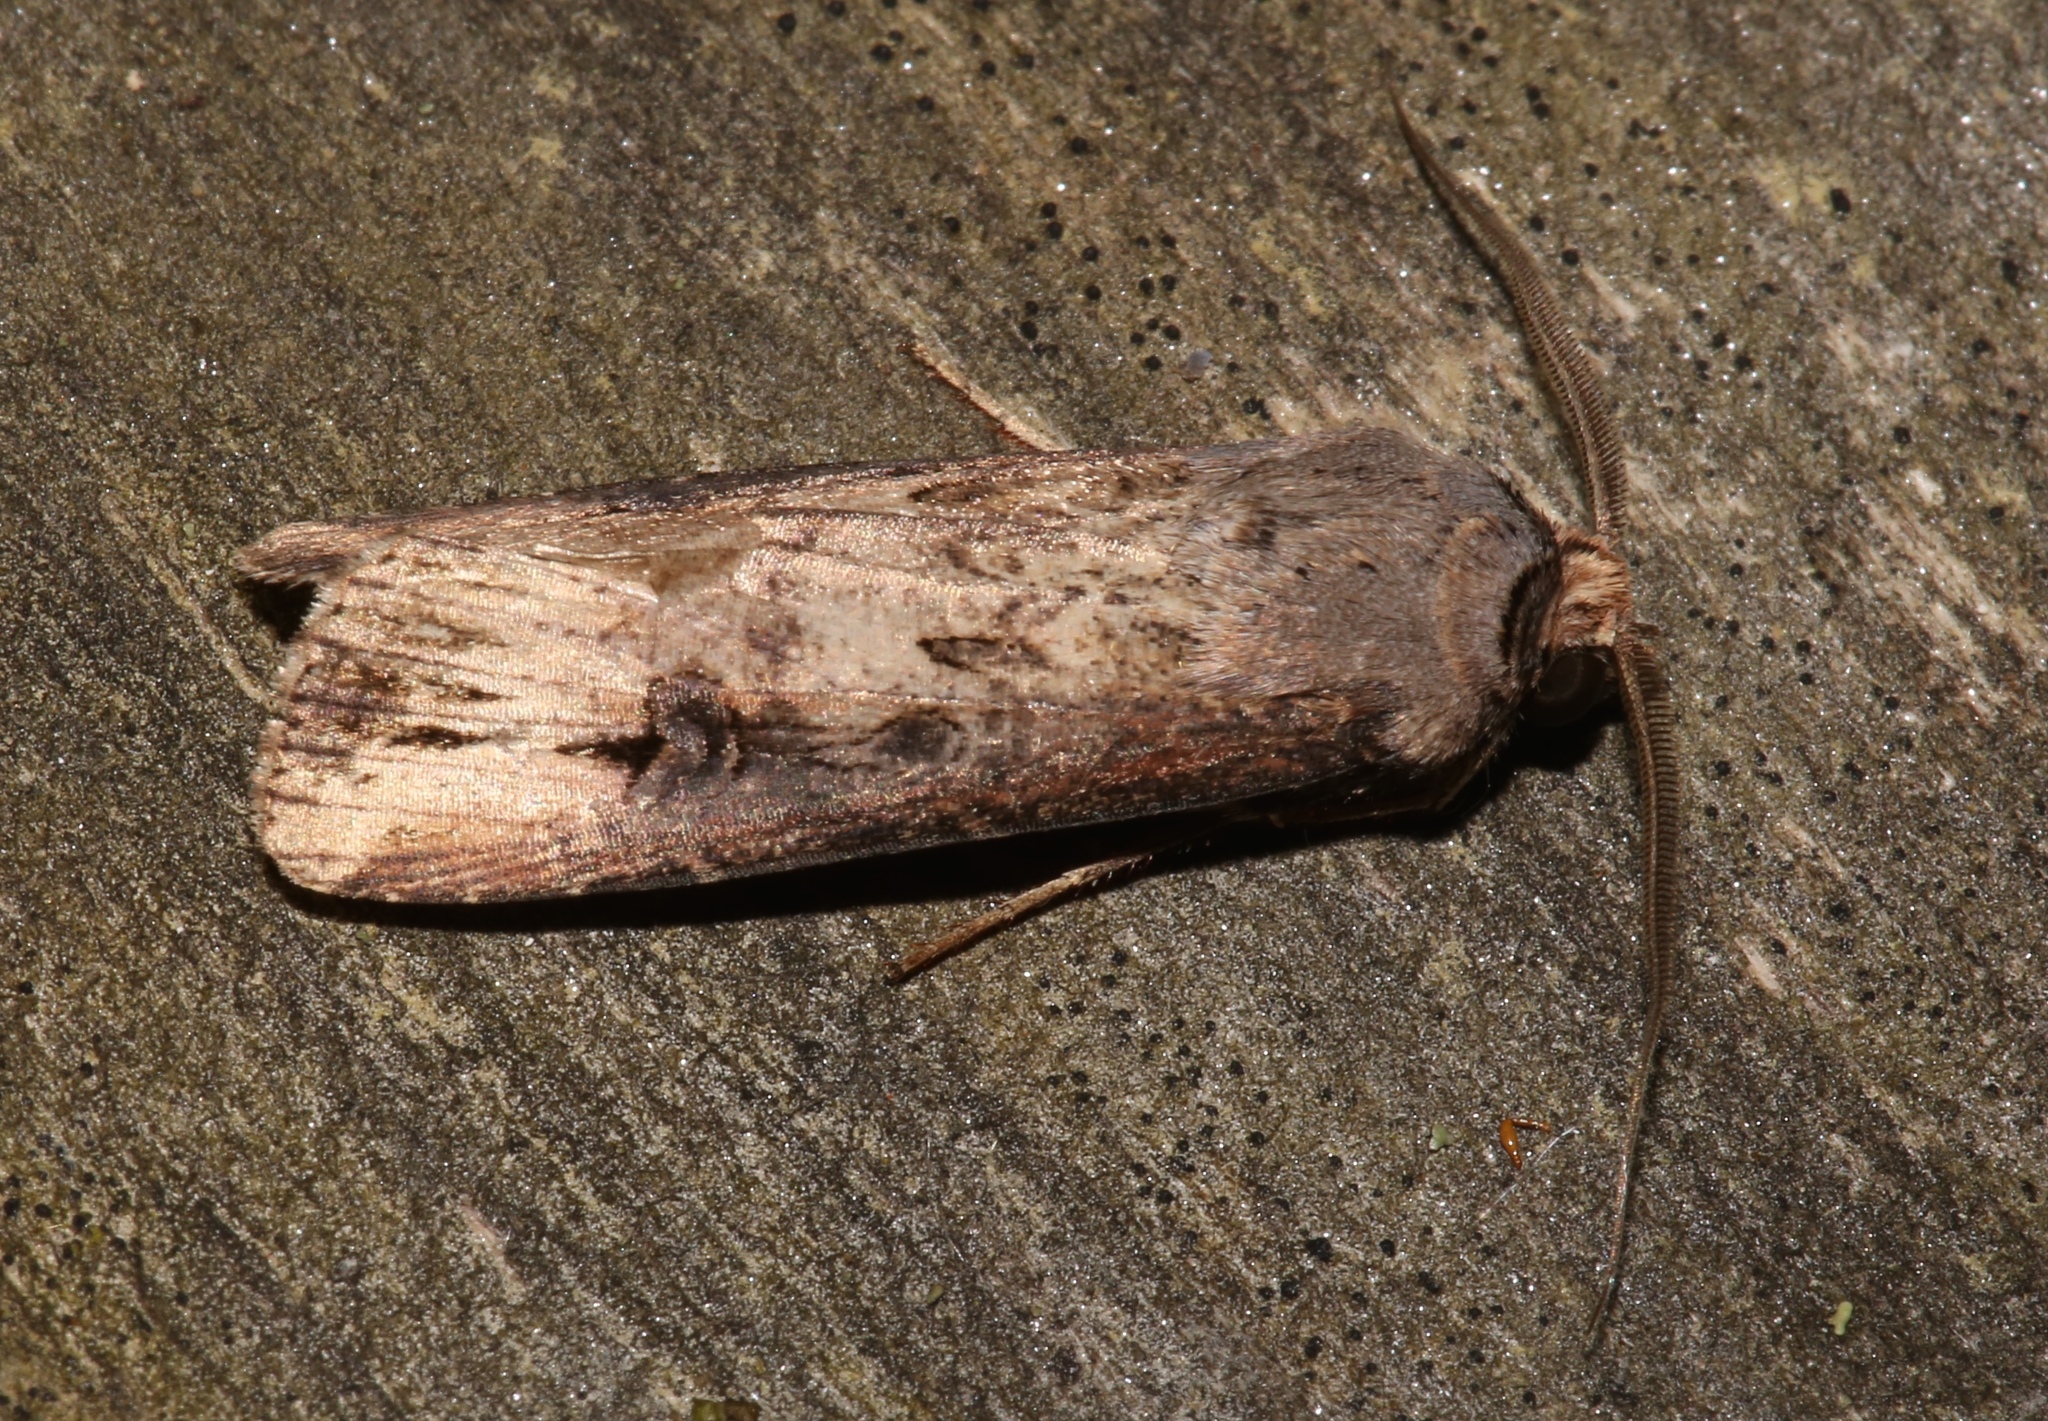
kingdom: Animalia
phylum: Arthropoda
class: Insecta
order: Lepidoptera
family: Noctuidae
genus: Agrotis
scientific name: Agrotis ipsilon
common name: Dark sword-grass
